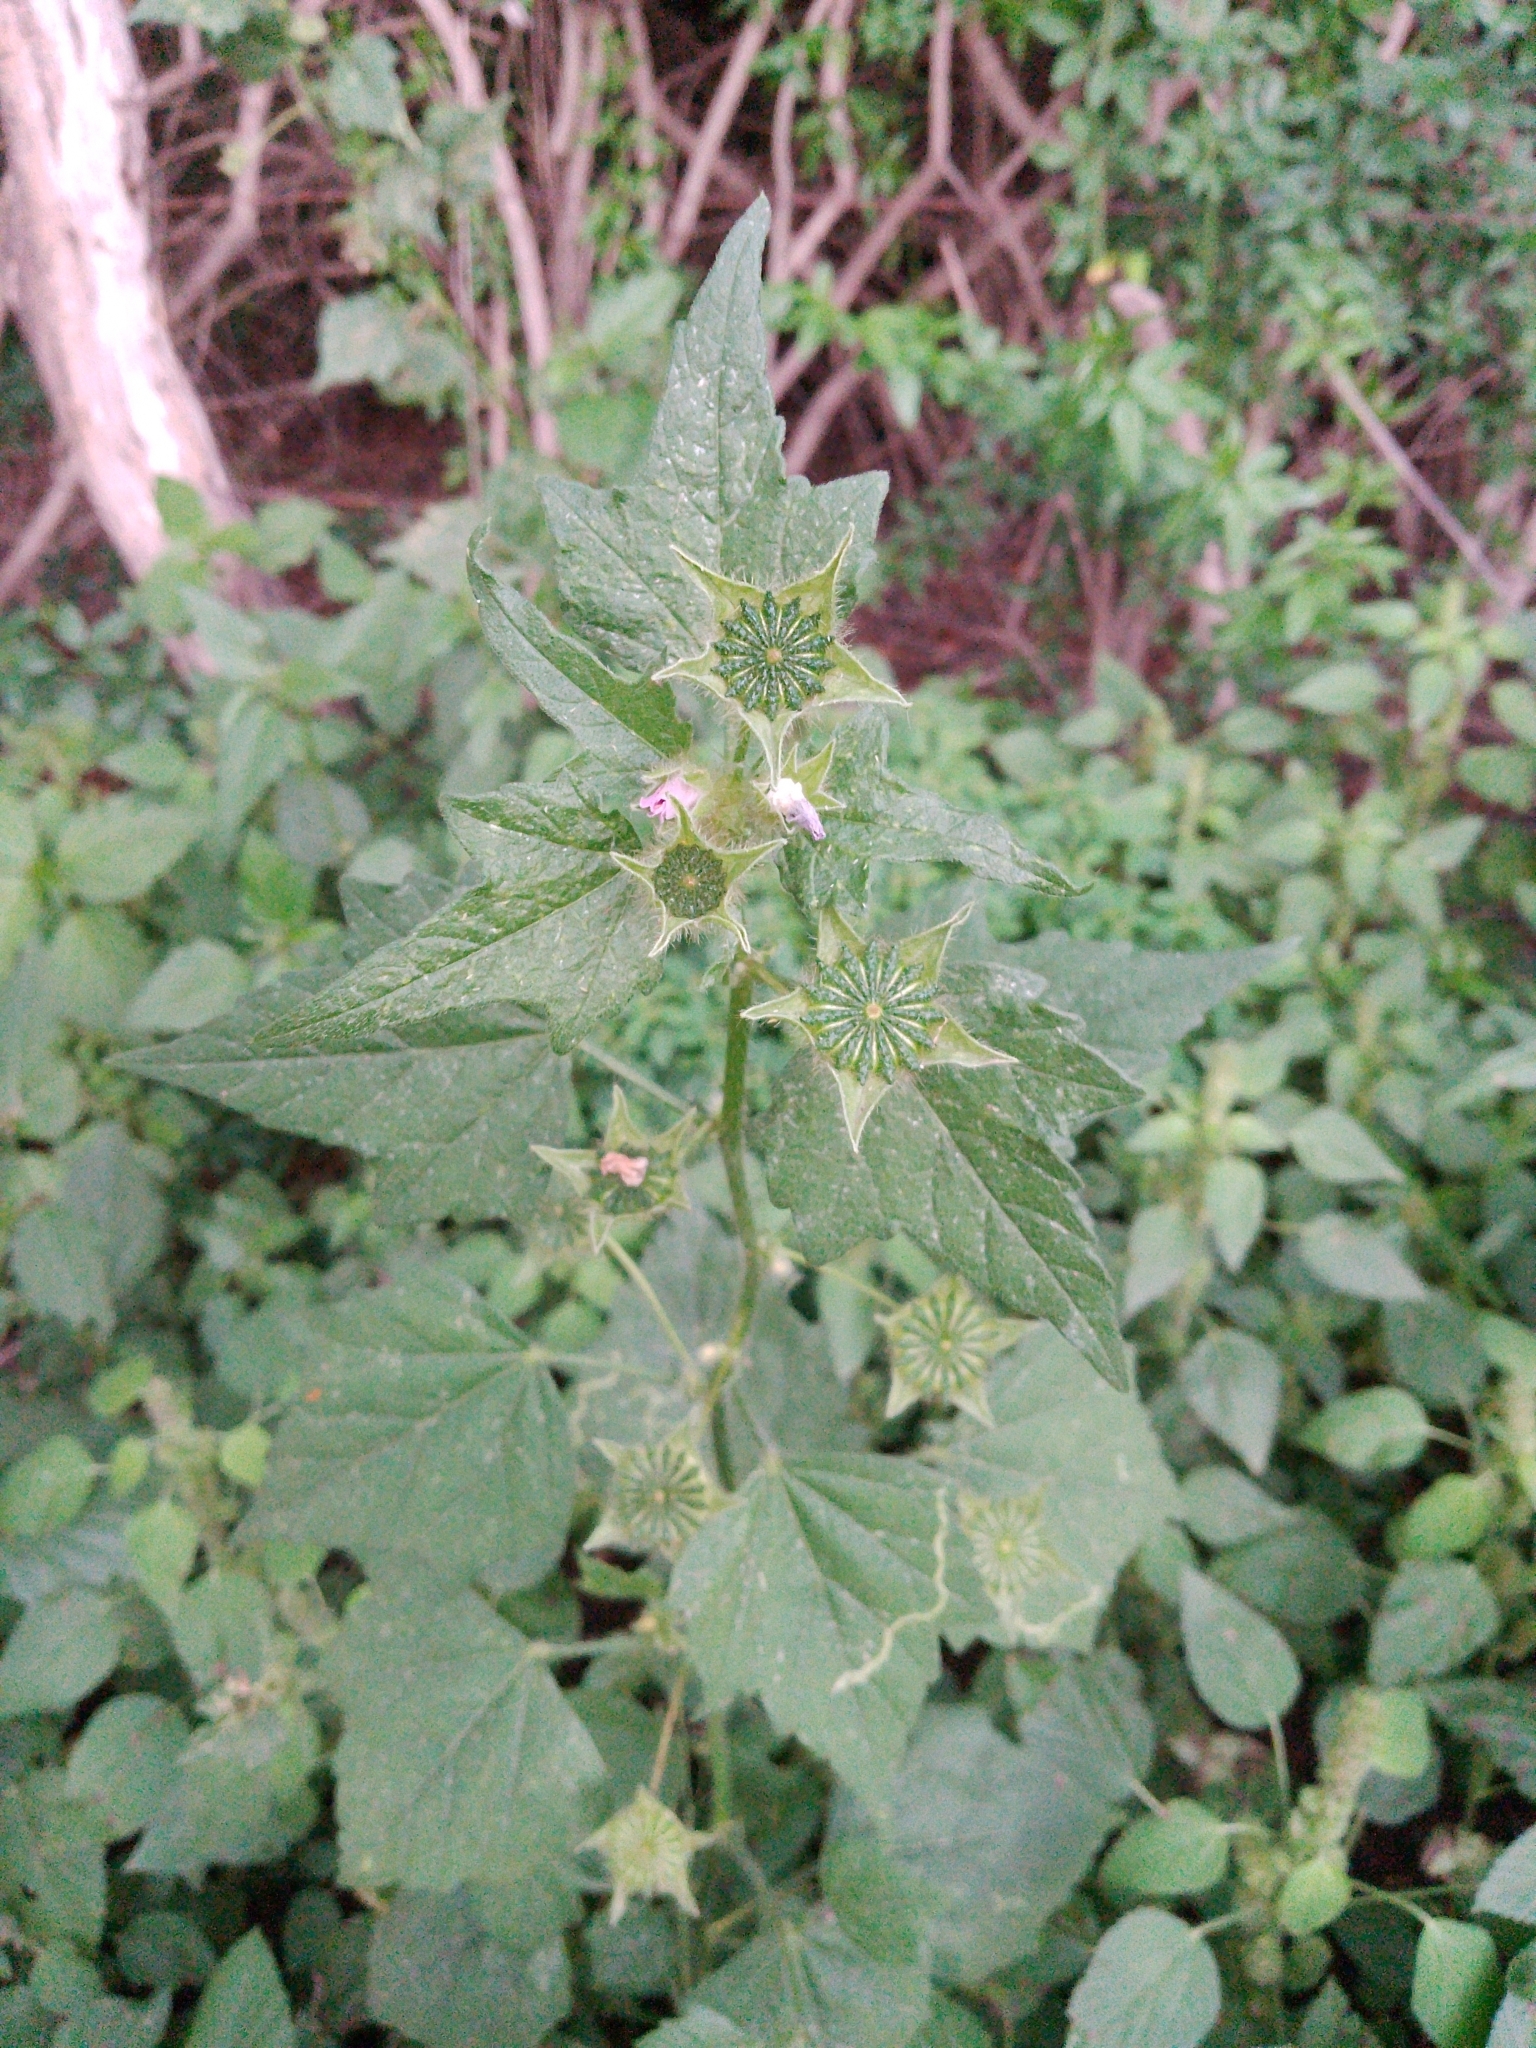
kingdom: Plantae
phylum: Tracheophyta
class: Magnoliopsida
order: Malvales
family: Malvaceae
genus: Anoda
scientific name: Anoda cristata
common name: Spurred anoda
